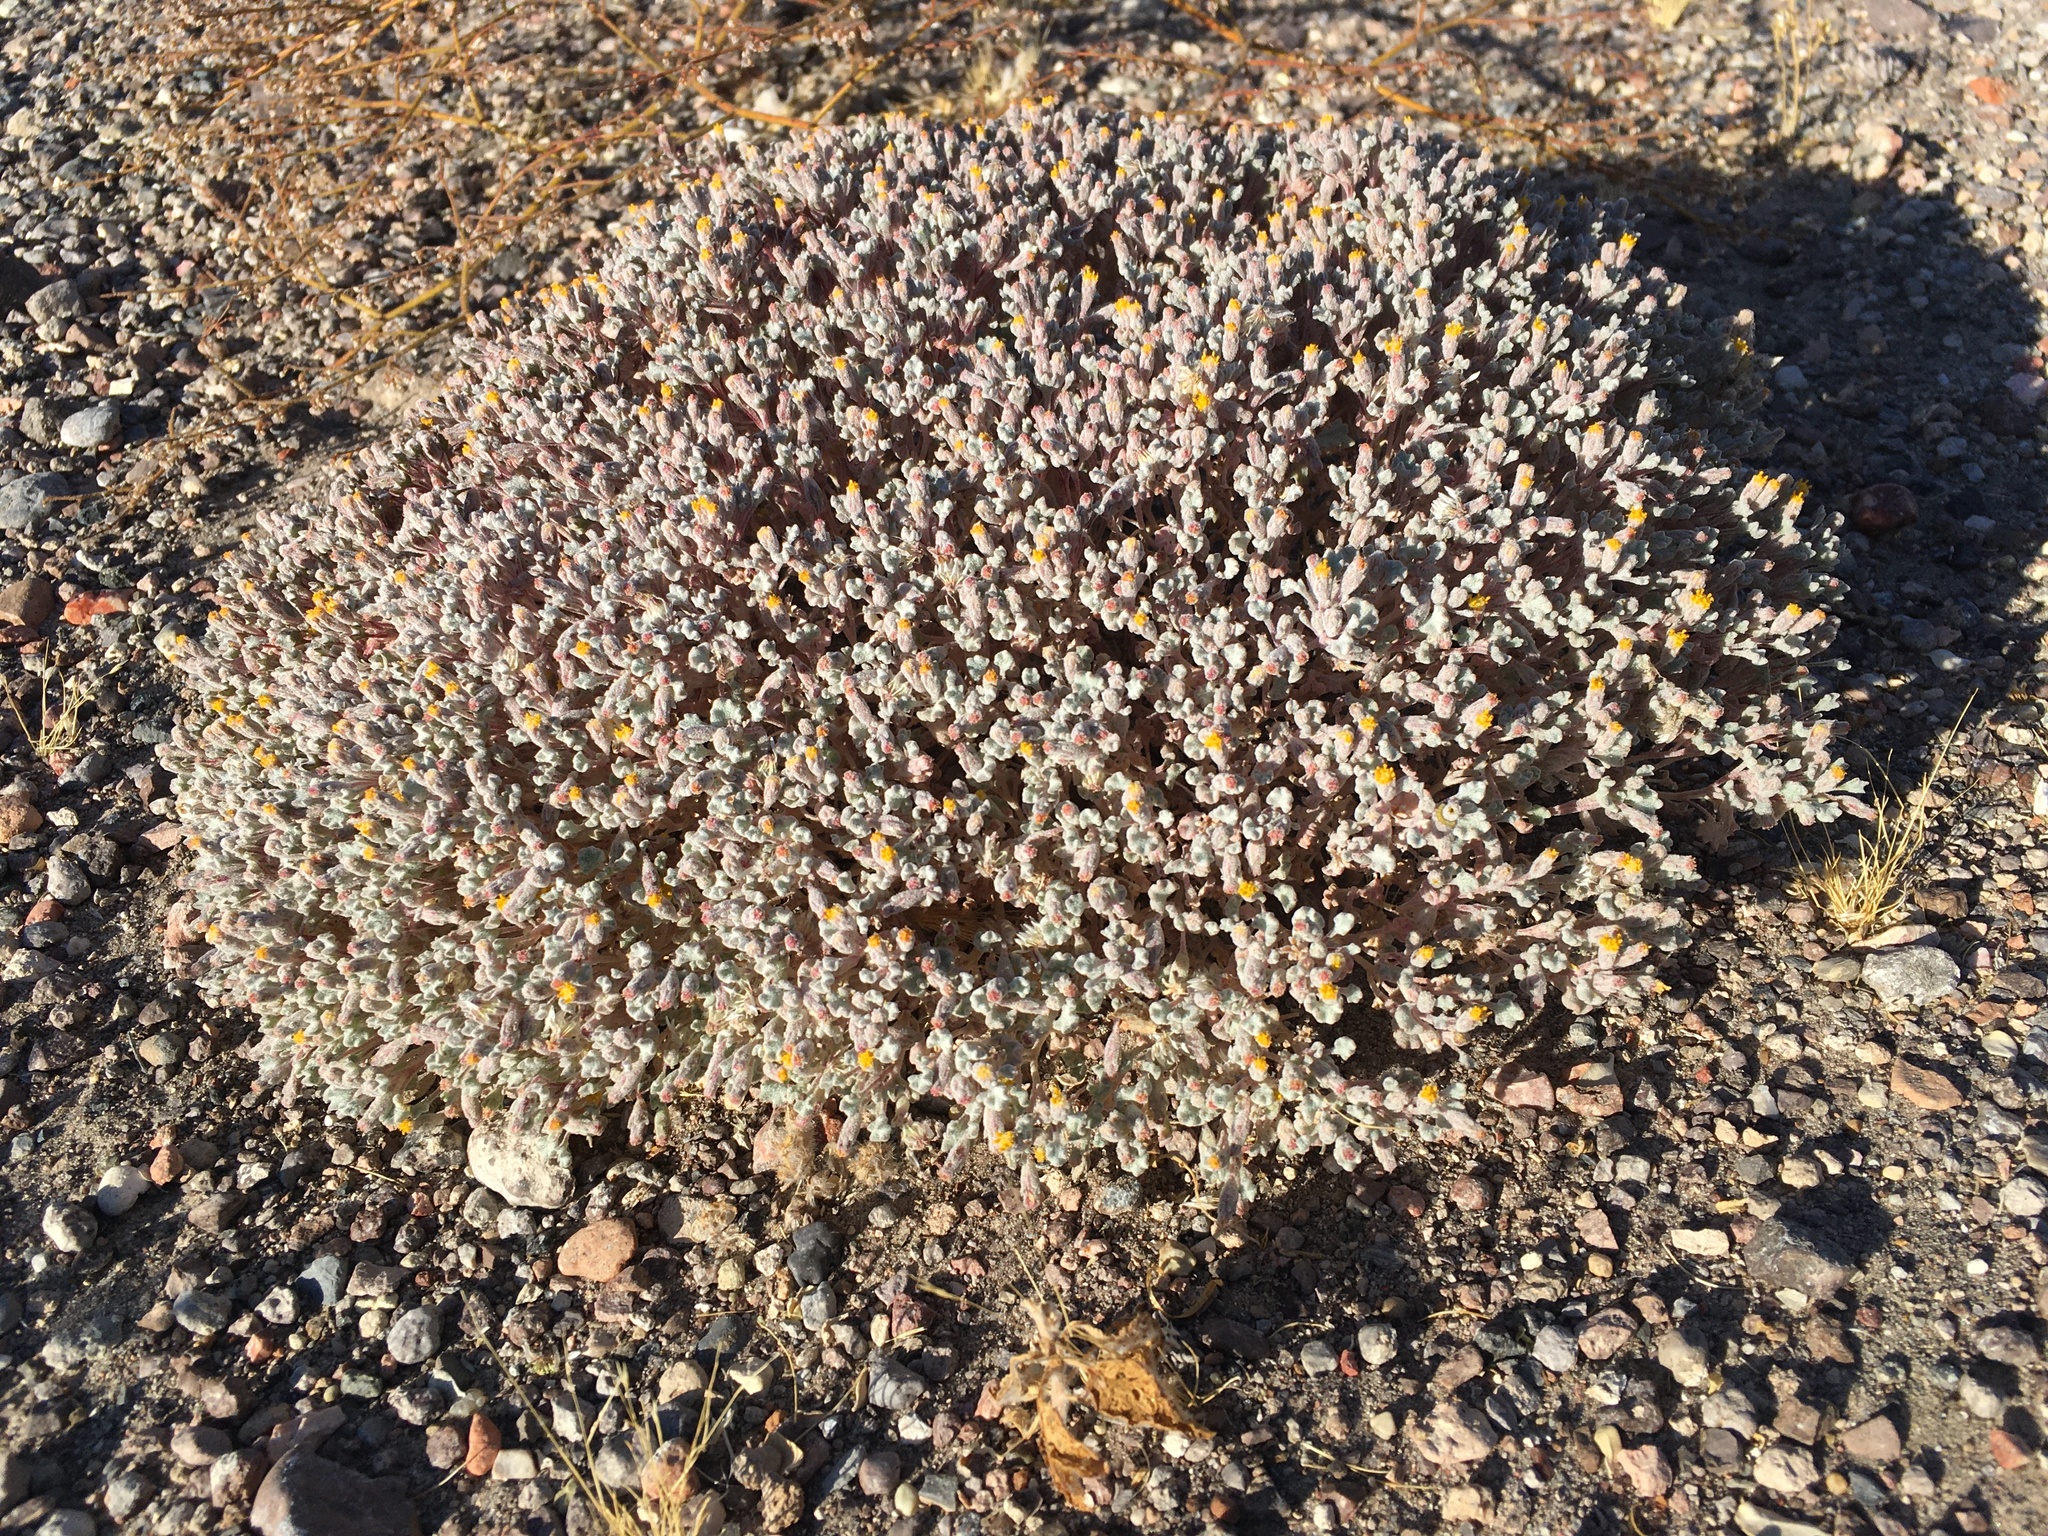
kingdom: Plantae
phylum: Tracheophyta
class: Magnoliopsida
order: Asterales
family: Asteraceae
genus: Psathyrotes
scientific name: Psathyrotes annua
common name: Mealy rosettes
